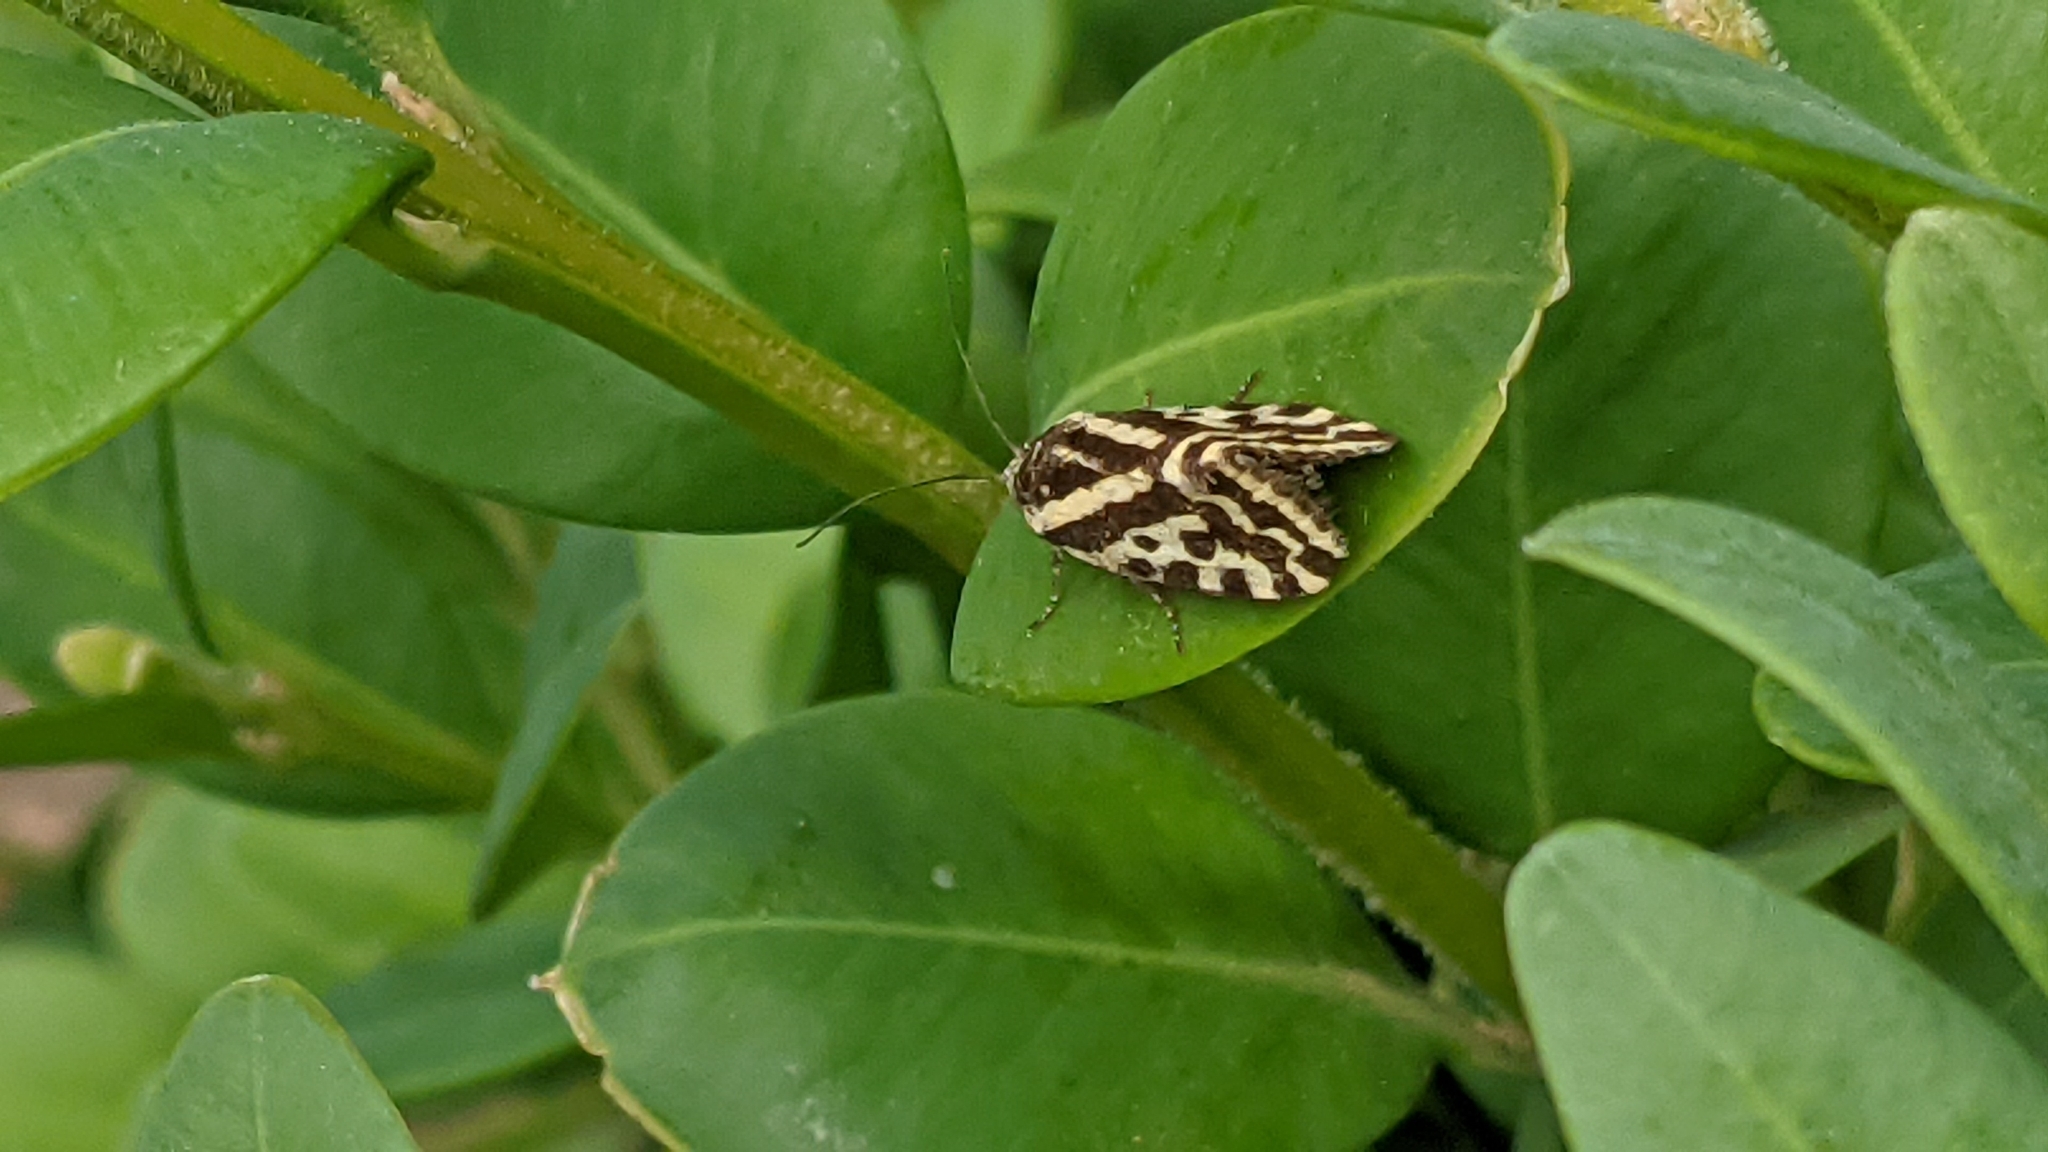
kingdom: Animalia
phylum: Arthropoda
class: Insecta
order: Lepidoptera
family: Noctuidae
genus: Acontia
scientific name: Acontia trabealis
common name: Spotted sulphur
